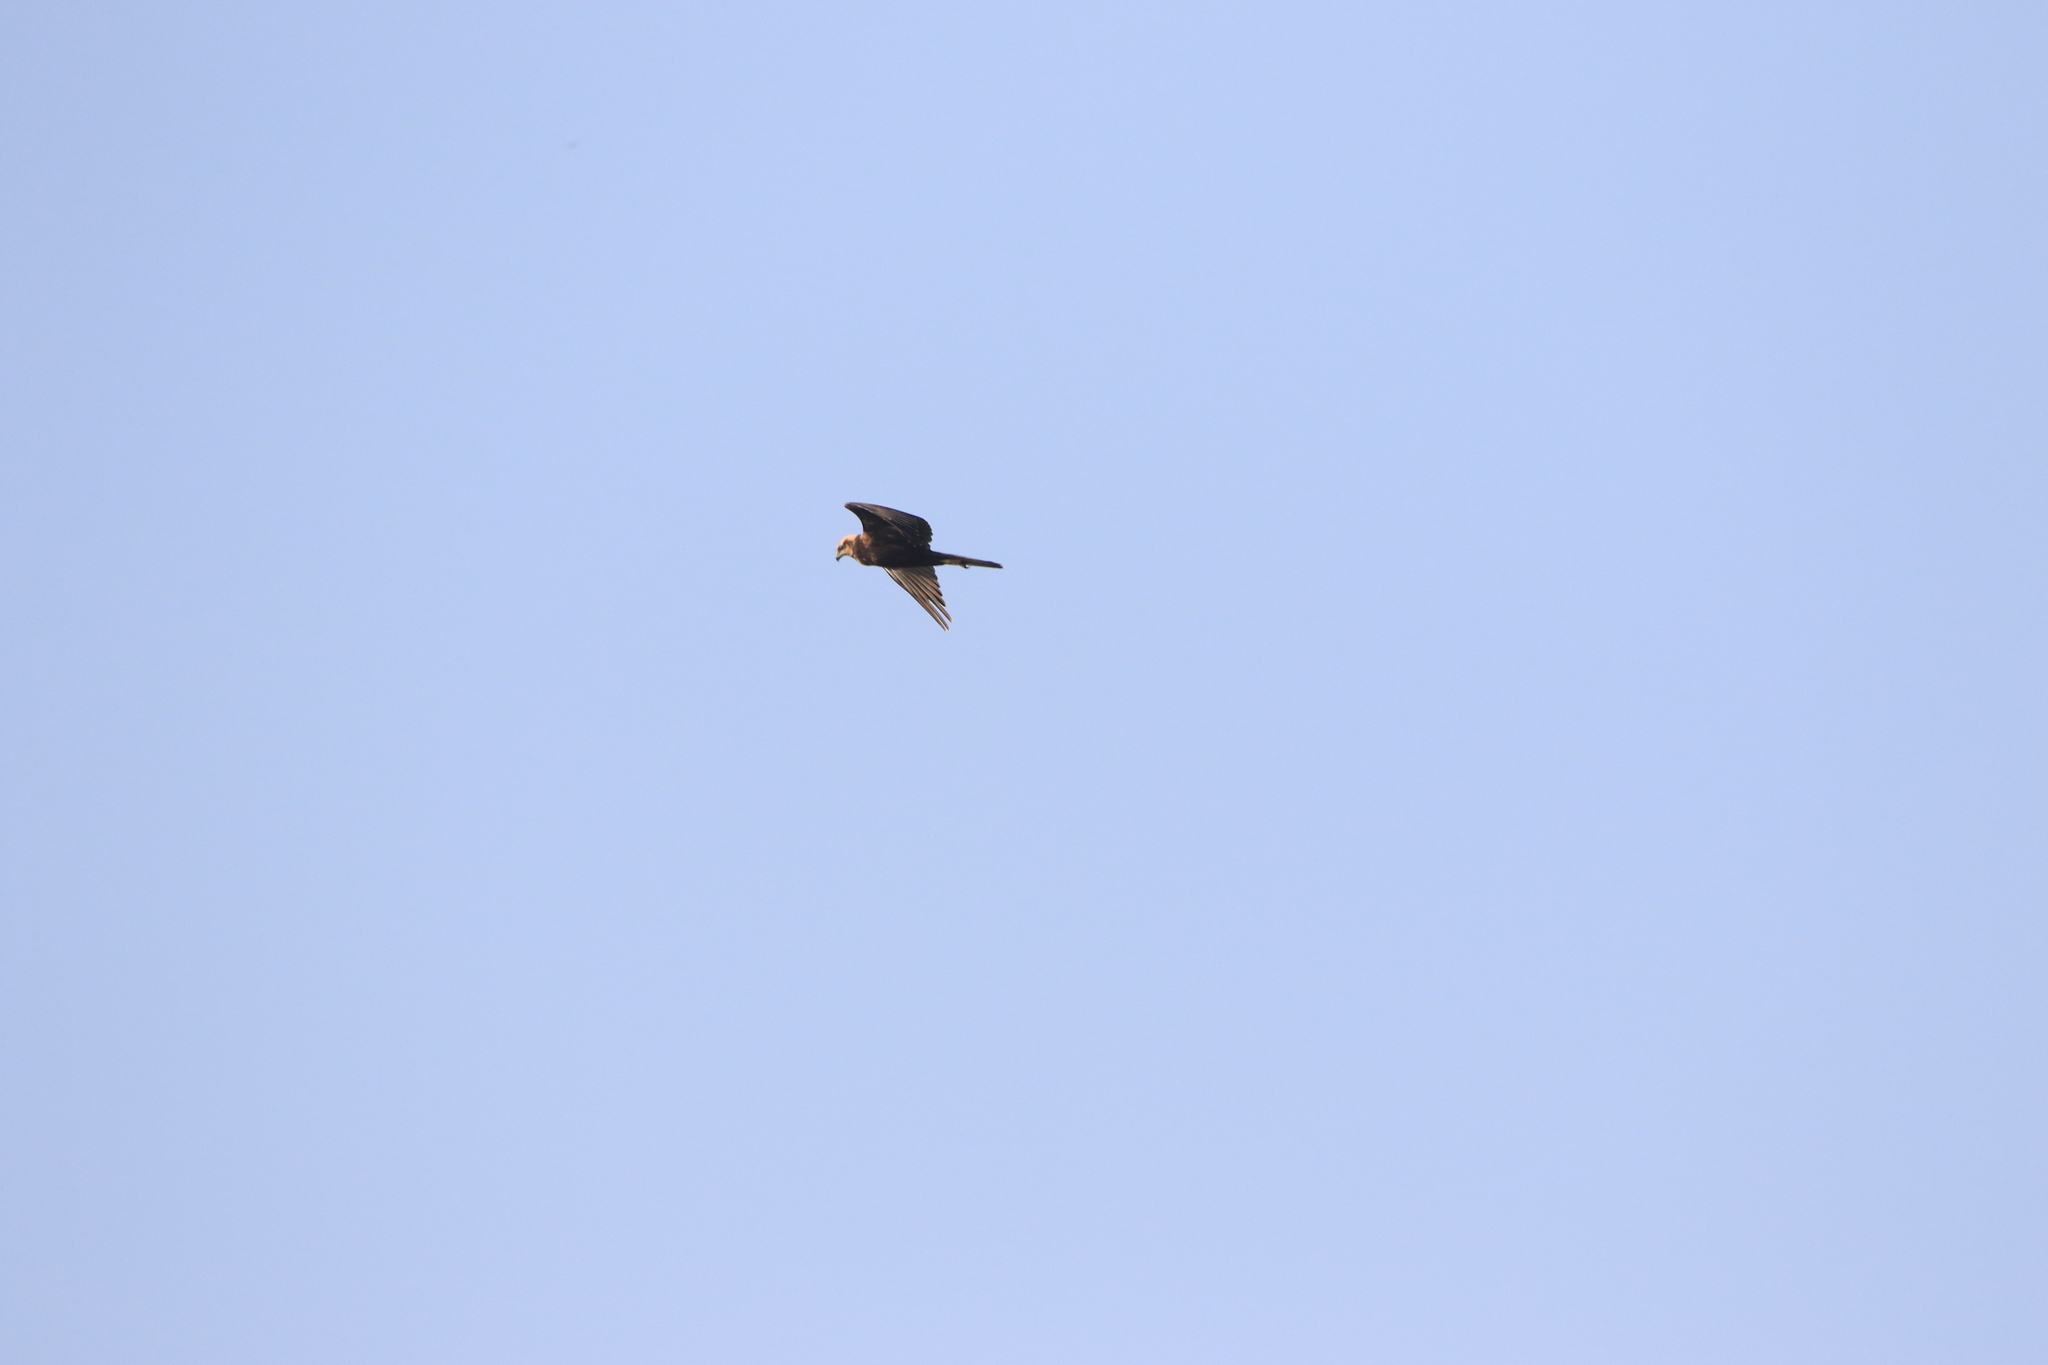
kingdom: Animalia
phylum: Chordata
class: Aves
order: Accipitriformes
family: Accipitridae
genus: Circus
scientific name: Circus aeruginosus
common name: Western marsh harrier
